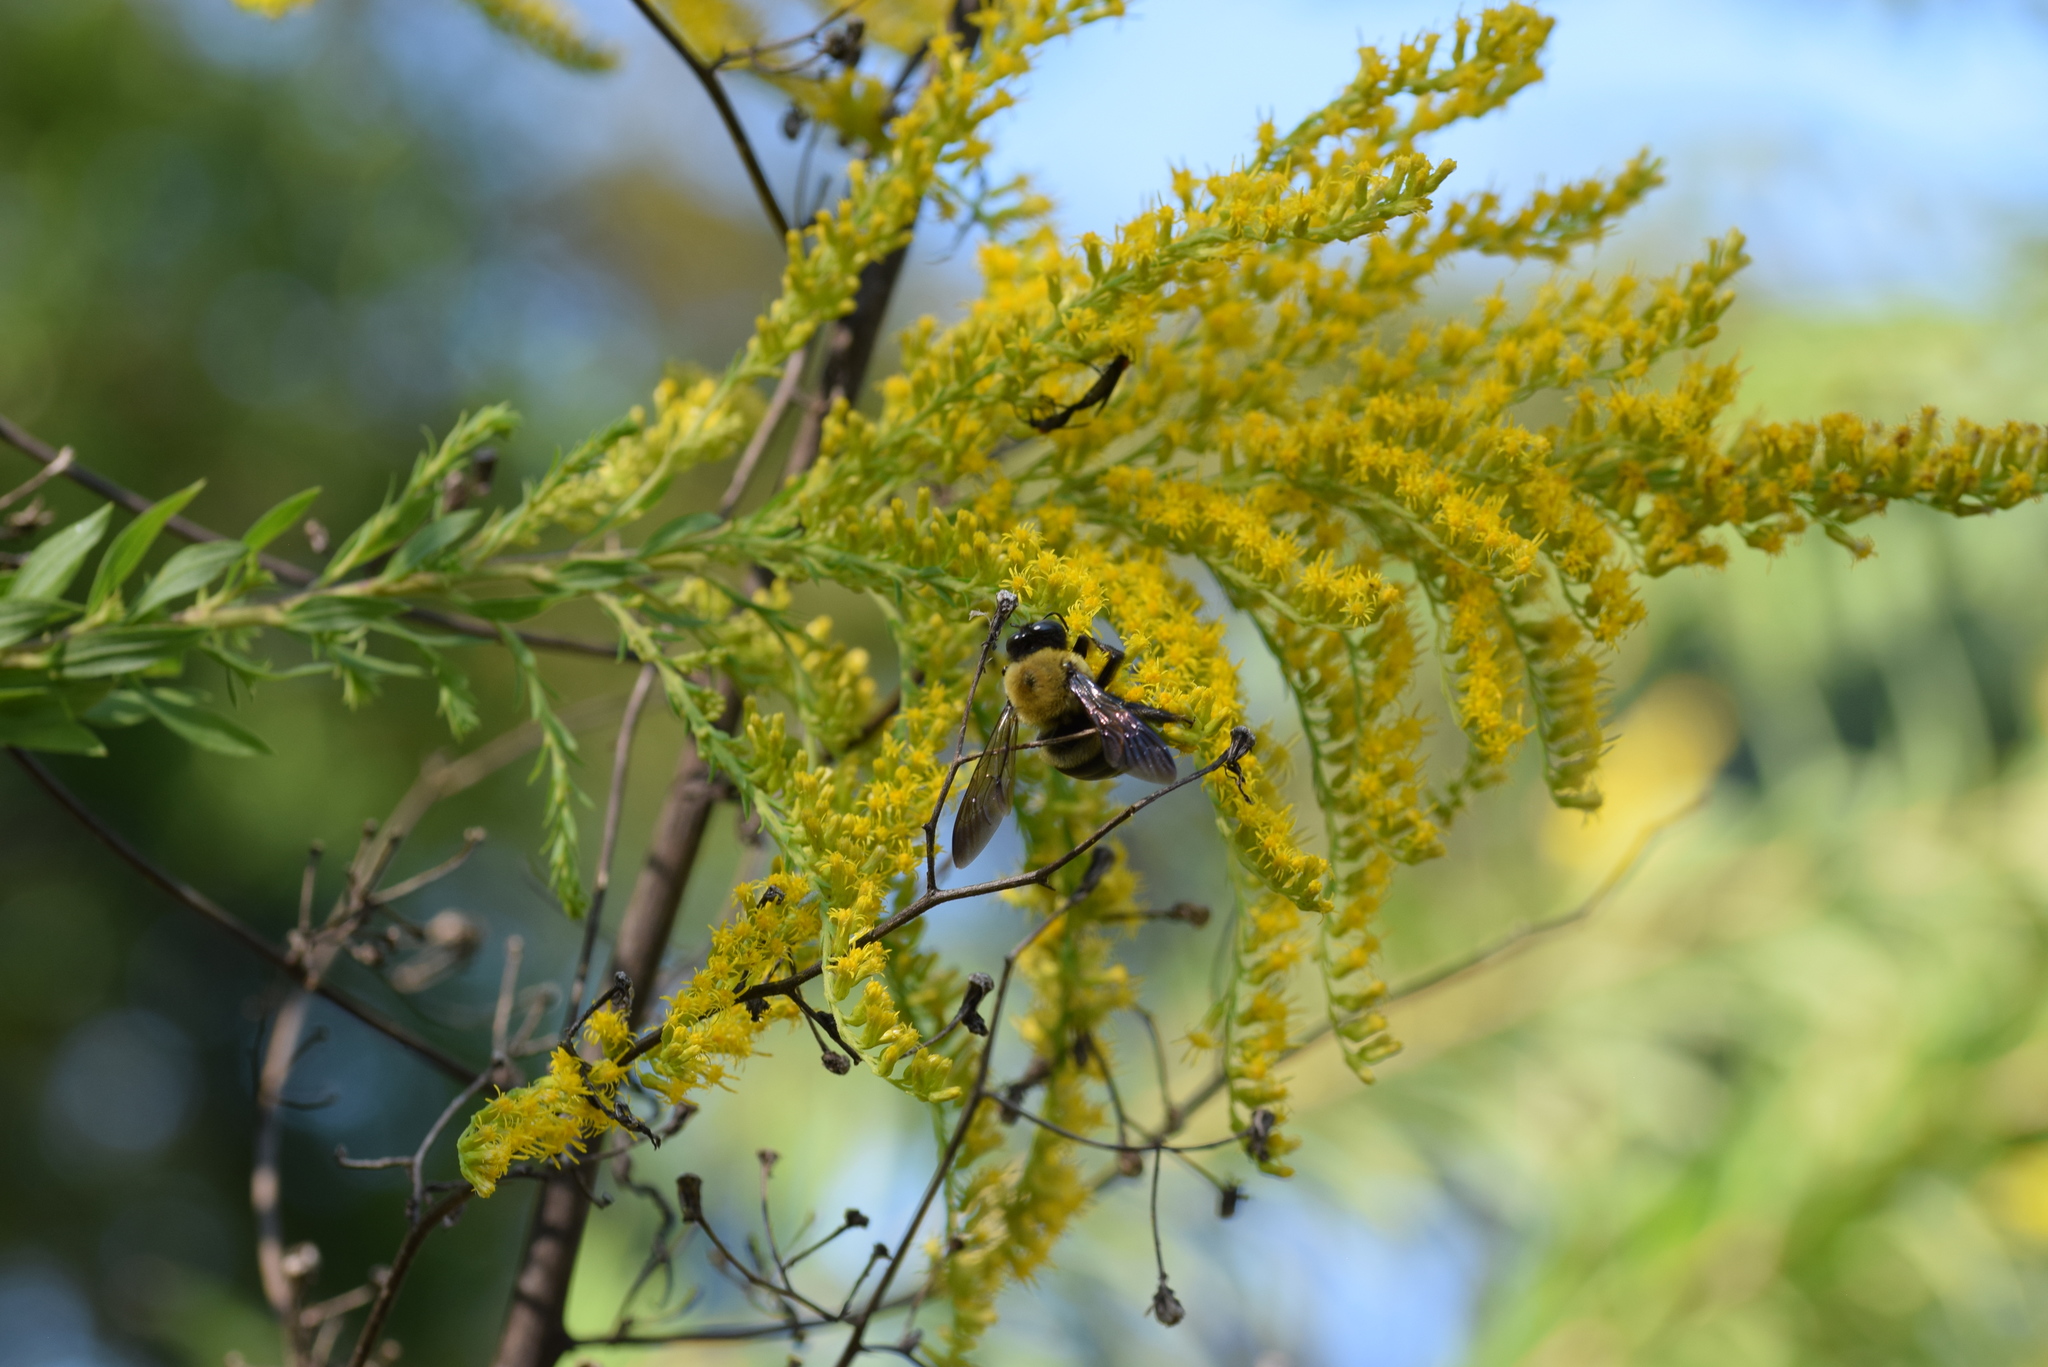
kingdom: Animalia
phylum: Arthropoda
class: Insecta
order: Hymenoptera
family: Apidae
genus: Xylocopa
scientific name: Xylocopa virginica
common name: Carpenter bee
